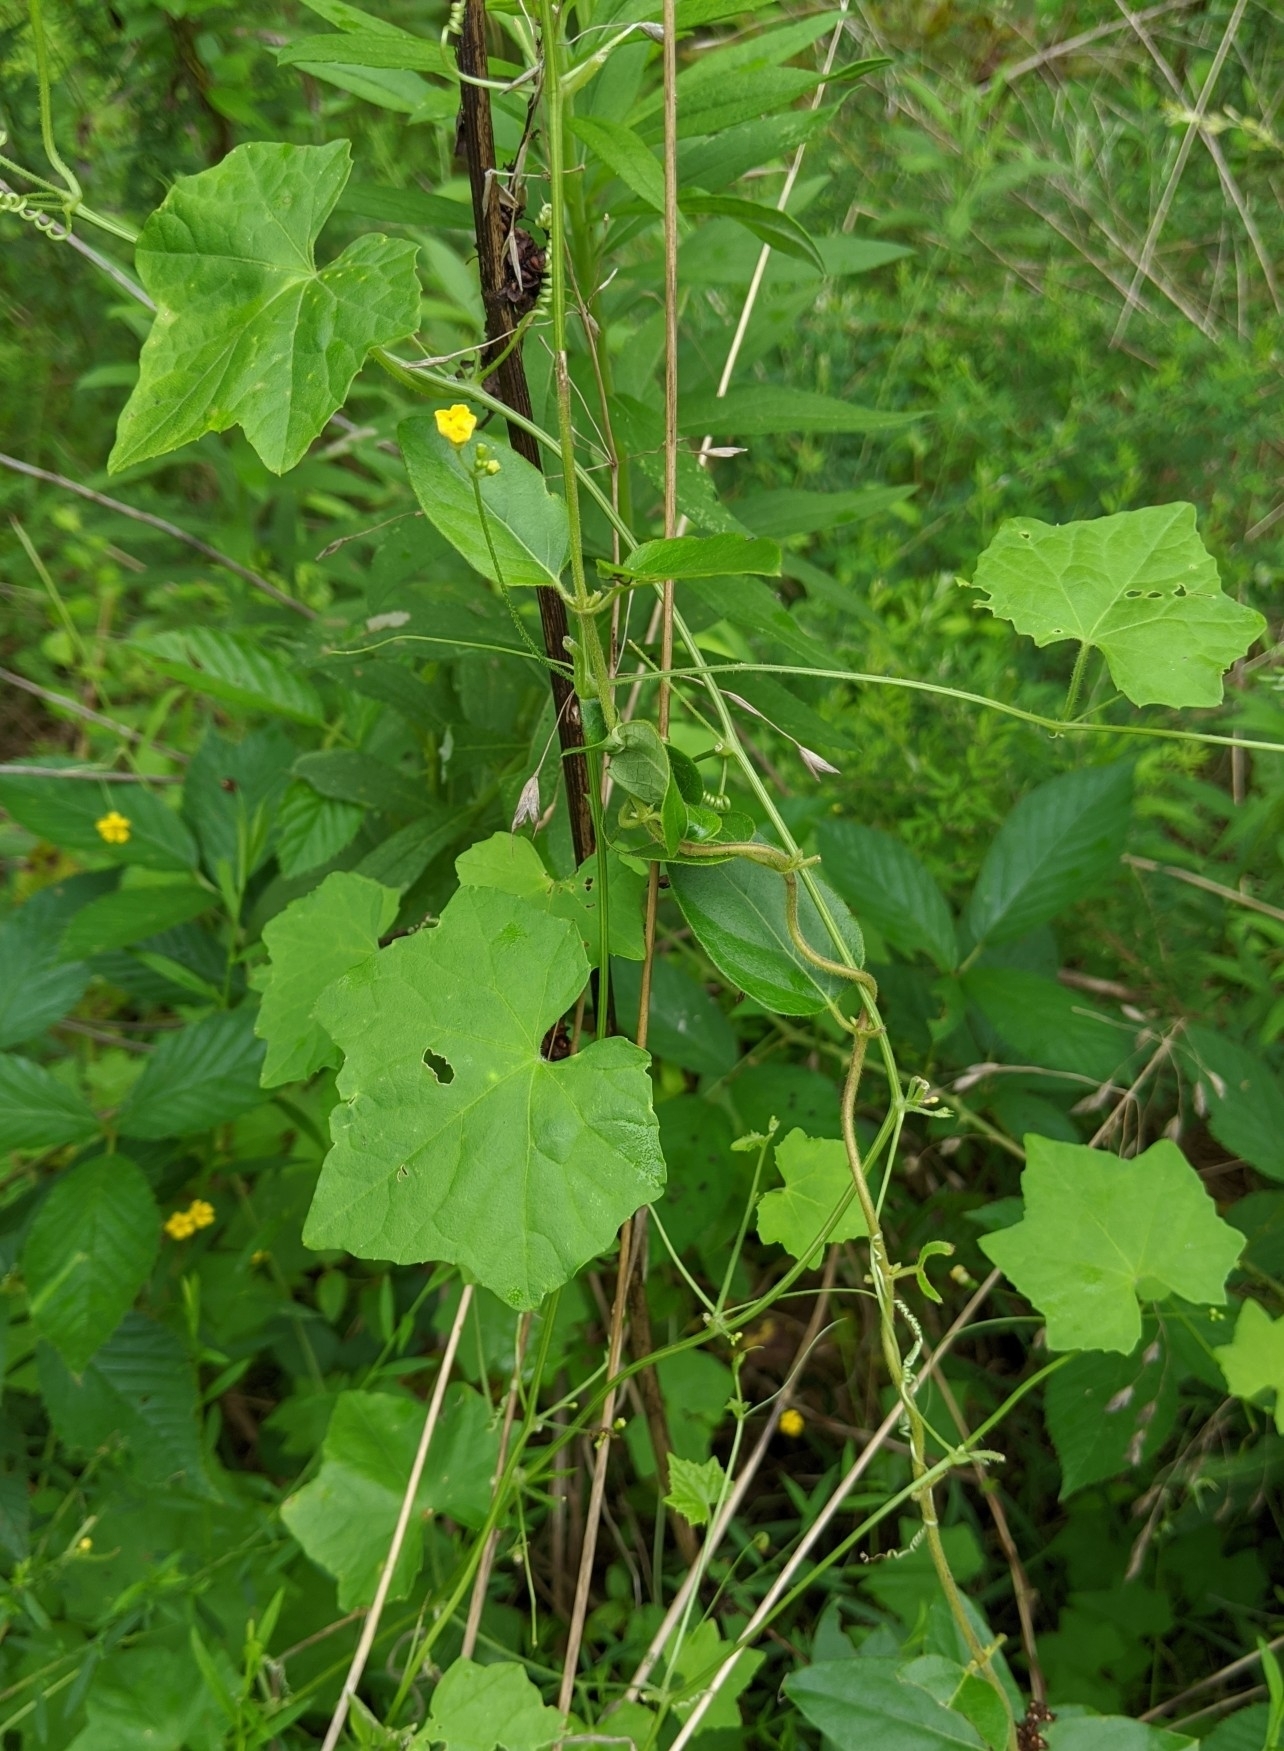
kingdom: Plantae
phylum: Tracheophyta
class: Magnoliopsida
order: Cucurbitales
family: Cucurbitaceae
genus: Melothria
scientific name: Melothria pendula
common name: Creeping-cucumber
